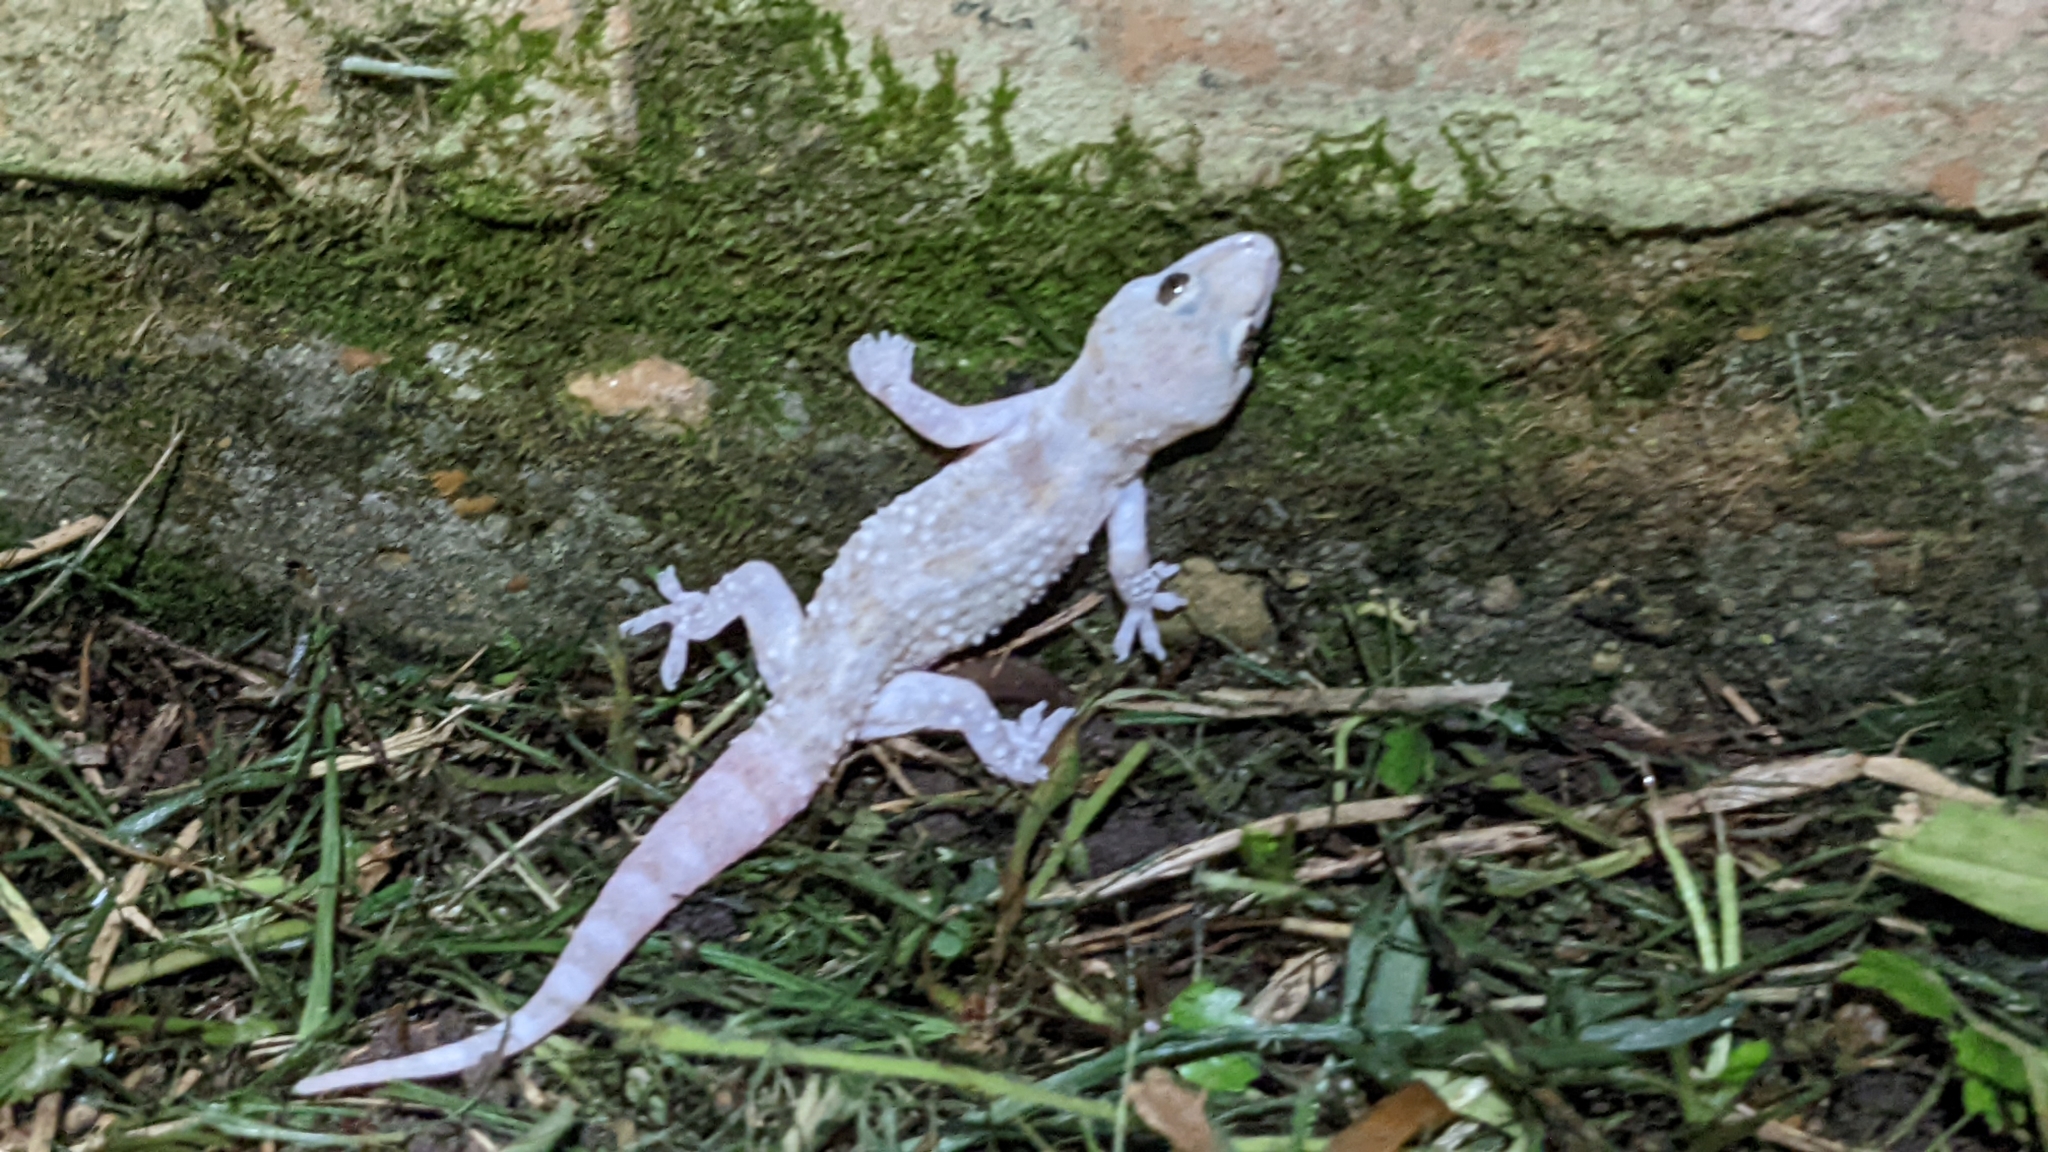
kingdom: Animalia
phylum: Chordata
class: Squamata
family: Gekkonidae
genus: Hemidactylus
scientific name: Hemidactylus turcicus
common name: Turkish gecko
